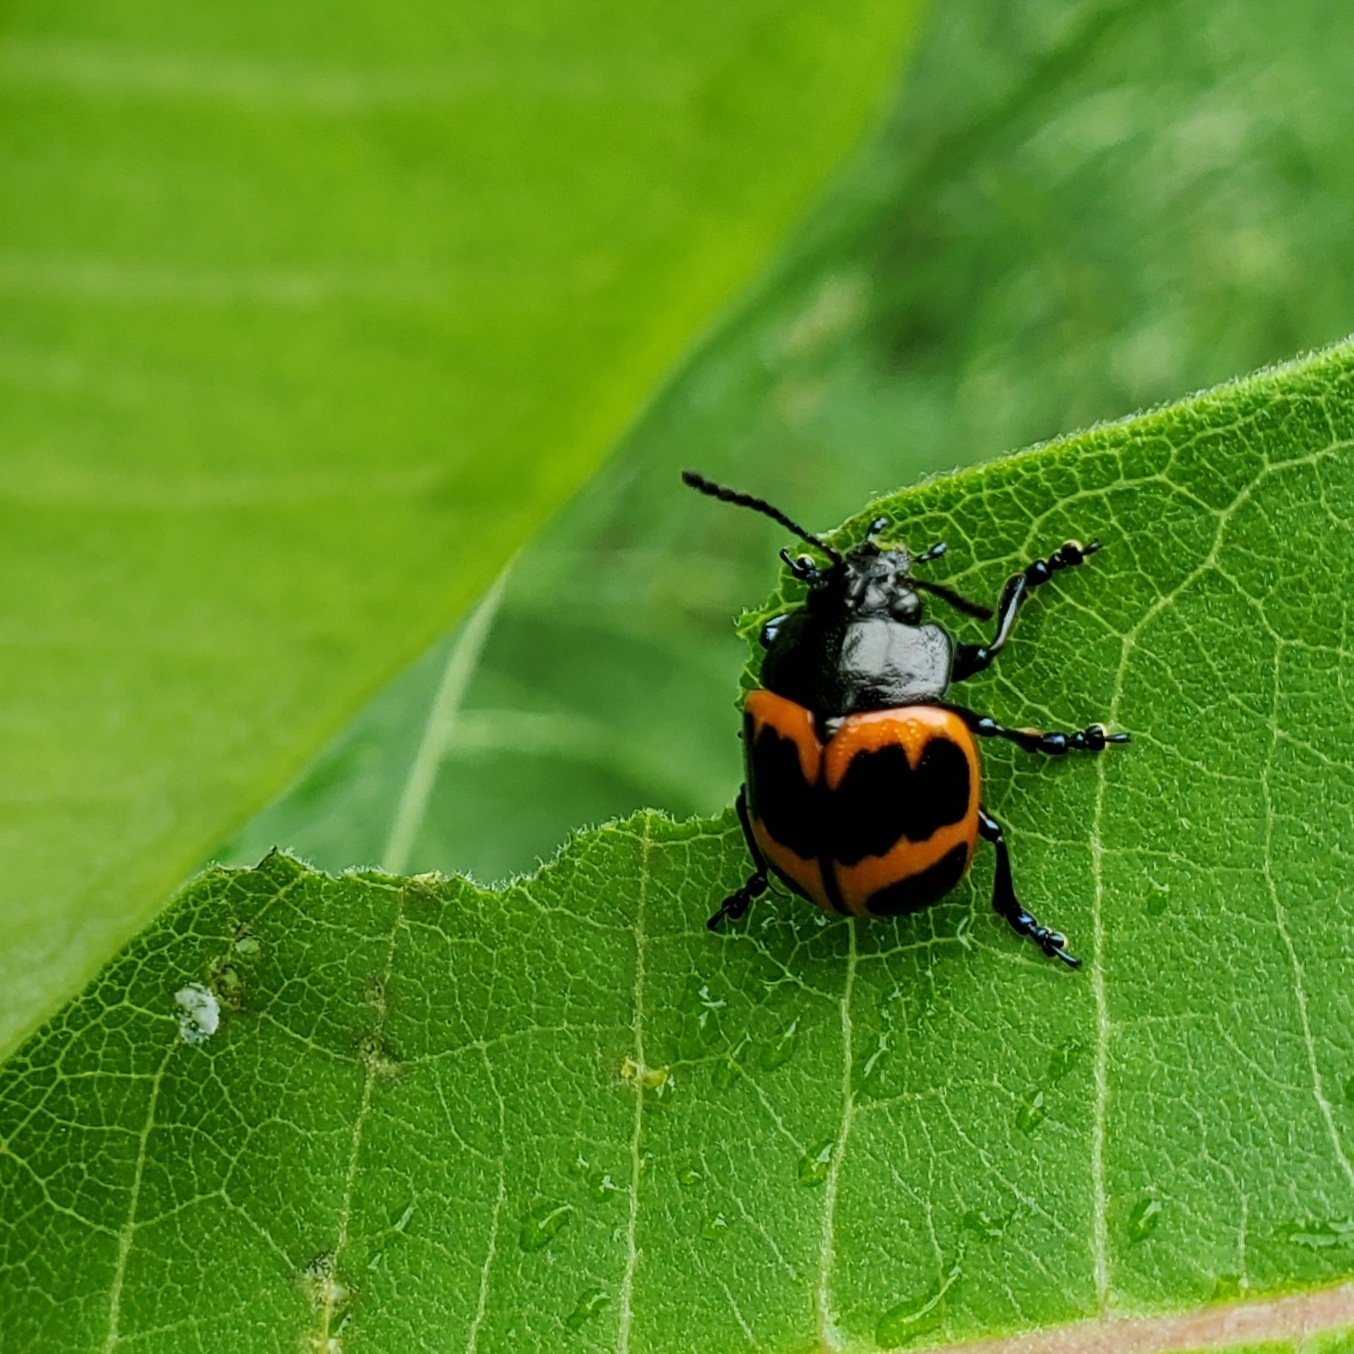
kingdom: Animalia
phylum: Arthropoda
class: Insecta
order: Coleoptera
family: Chrysomelidae
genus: Labidomera
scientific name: Labidomera clivicollis
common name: Swamp milkweed leaf beetle
